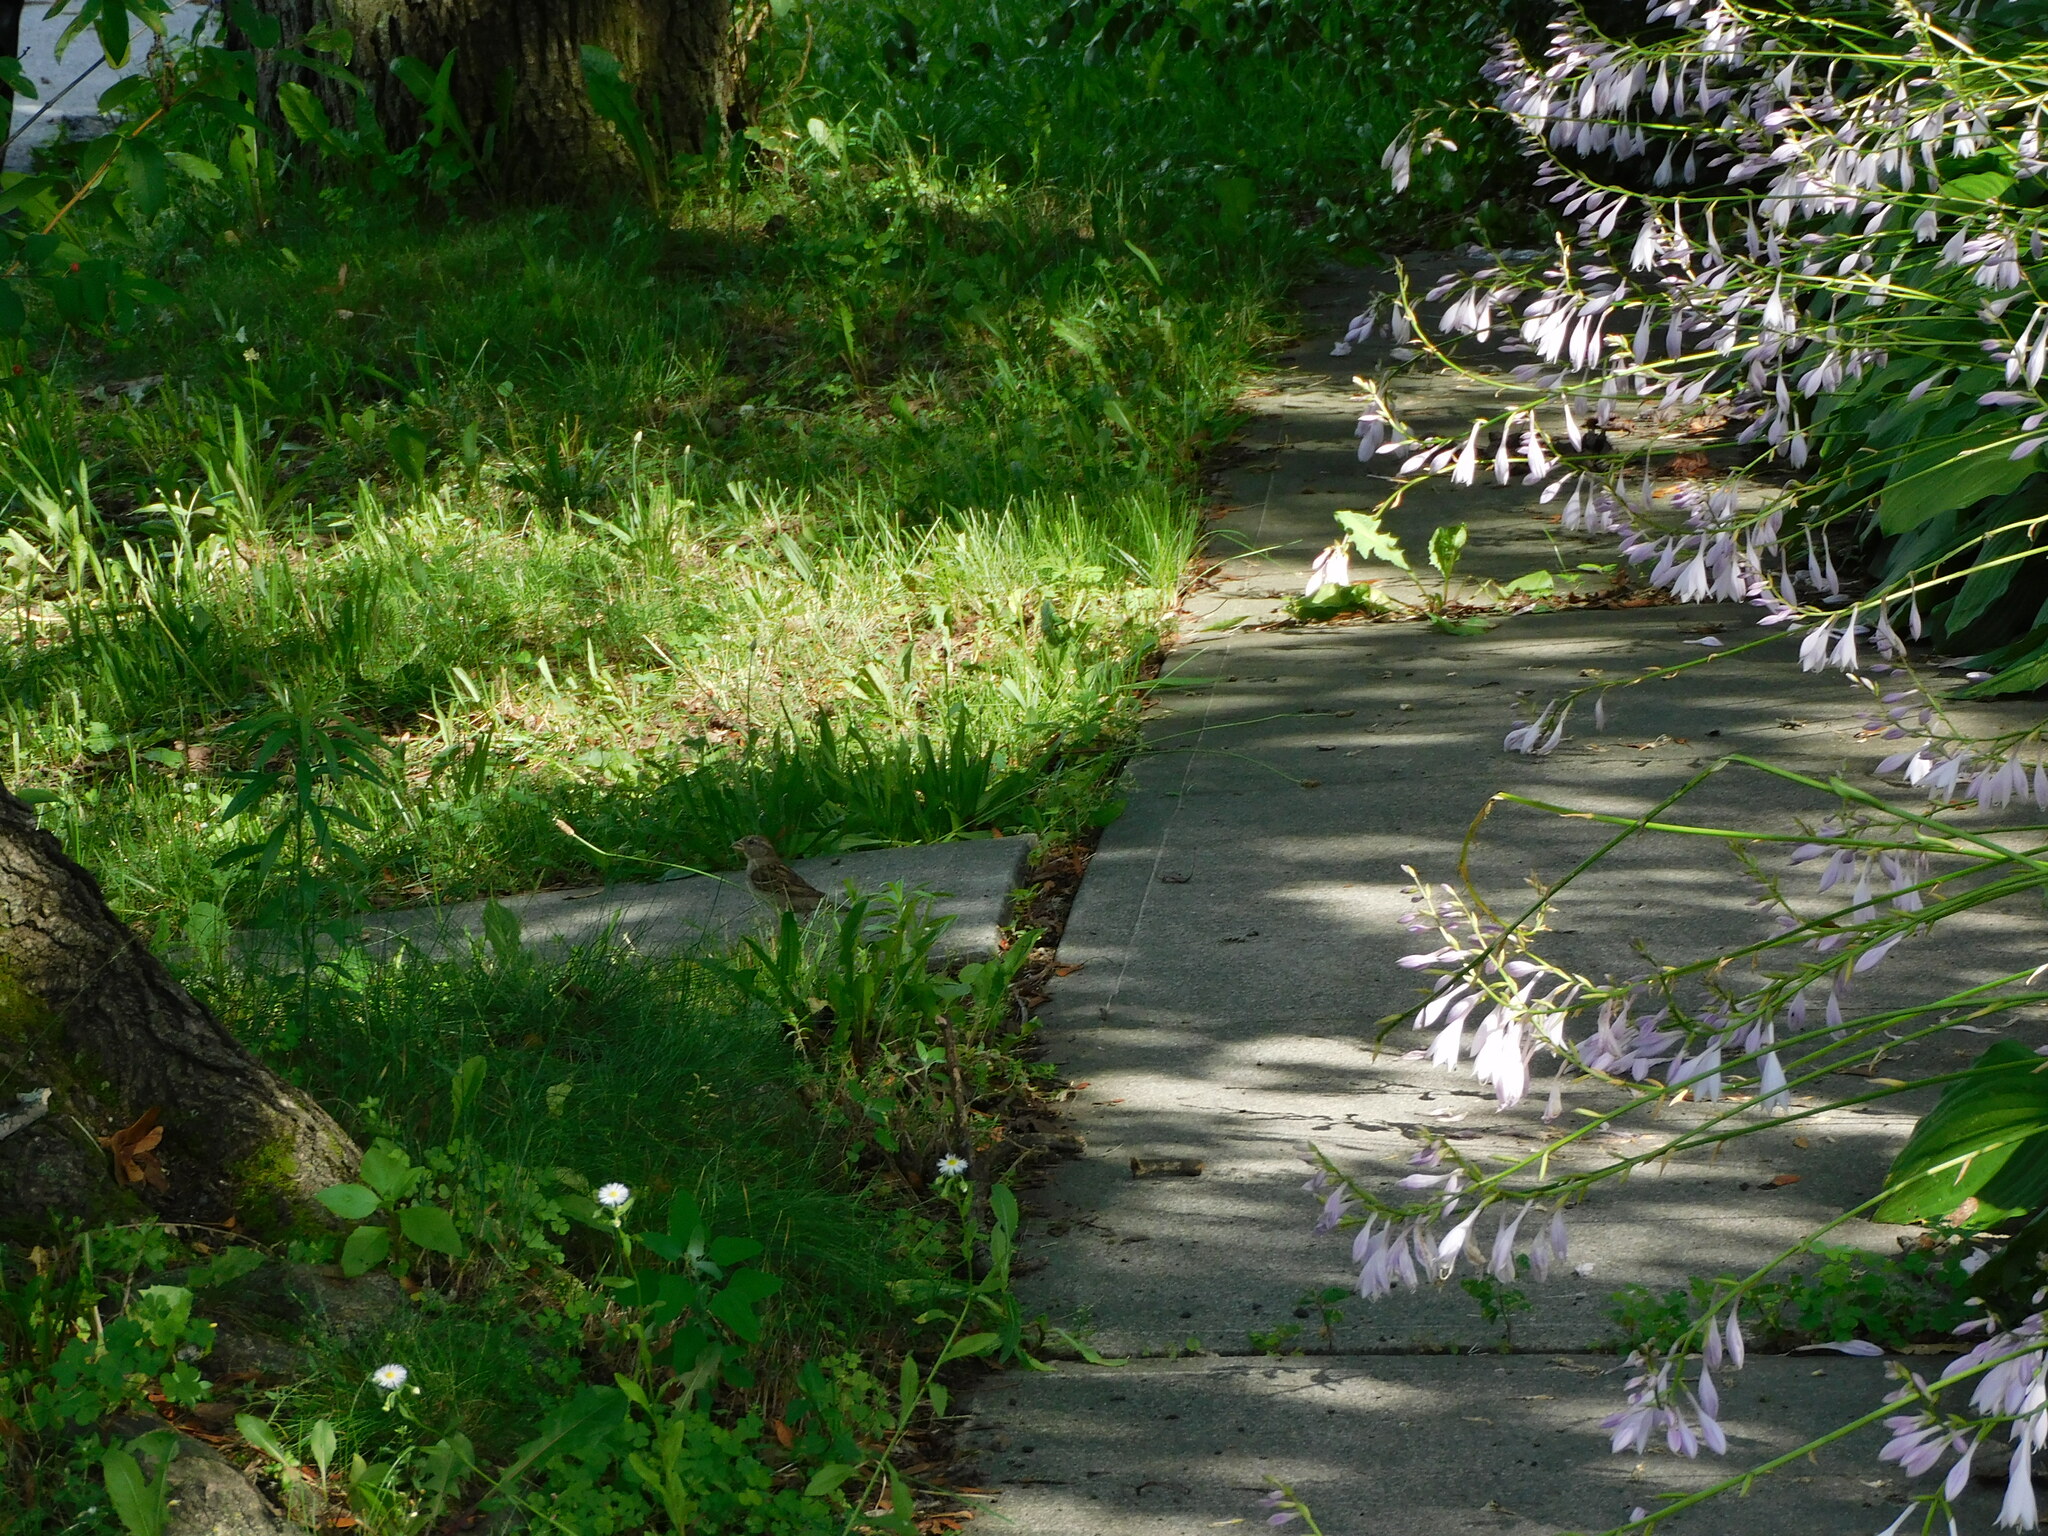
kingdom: Animalia
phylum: Chordata
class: Aves
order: Passeriformes
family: Passeridae
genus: Passer
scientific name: Passer domesticus
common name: House sparrow
